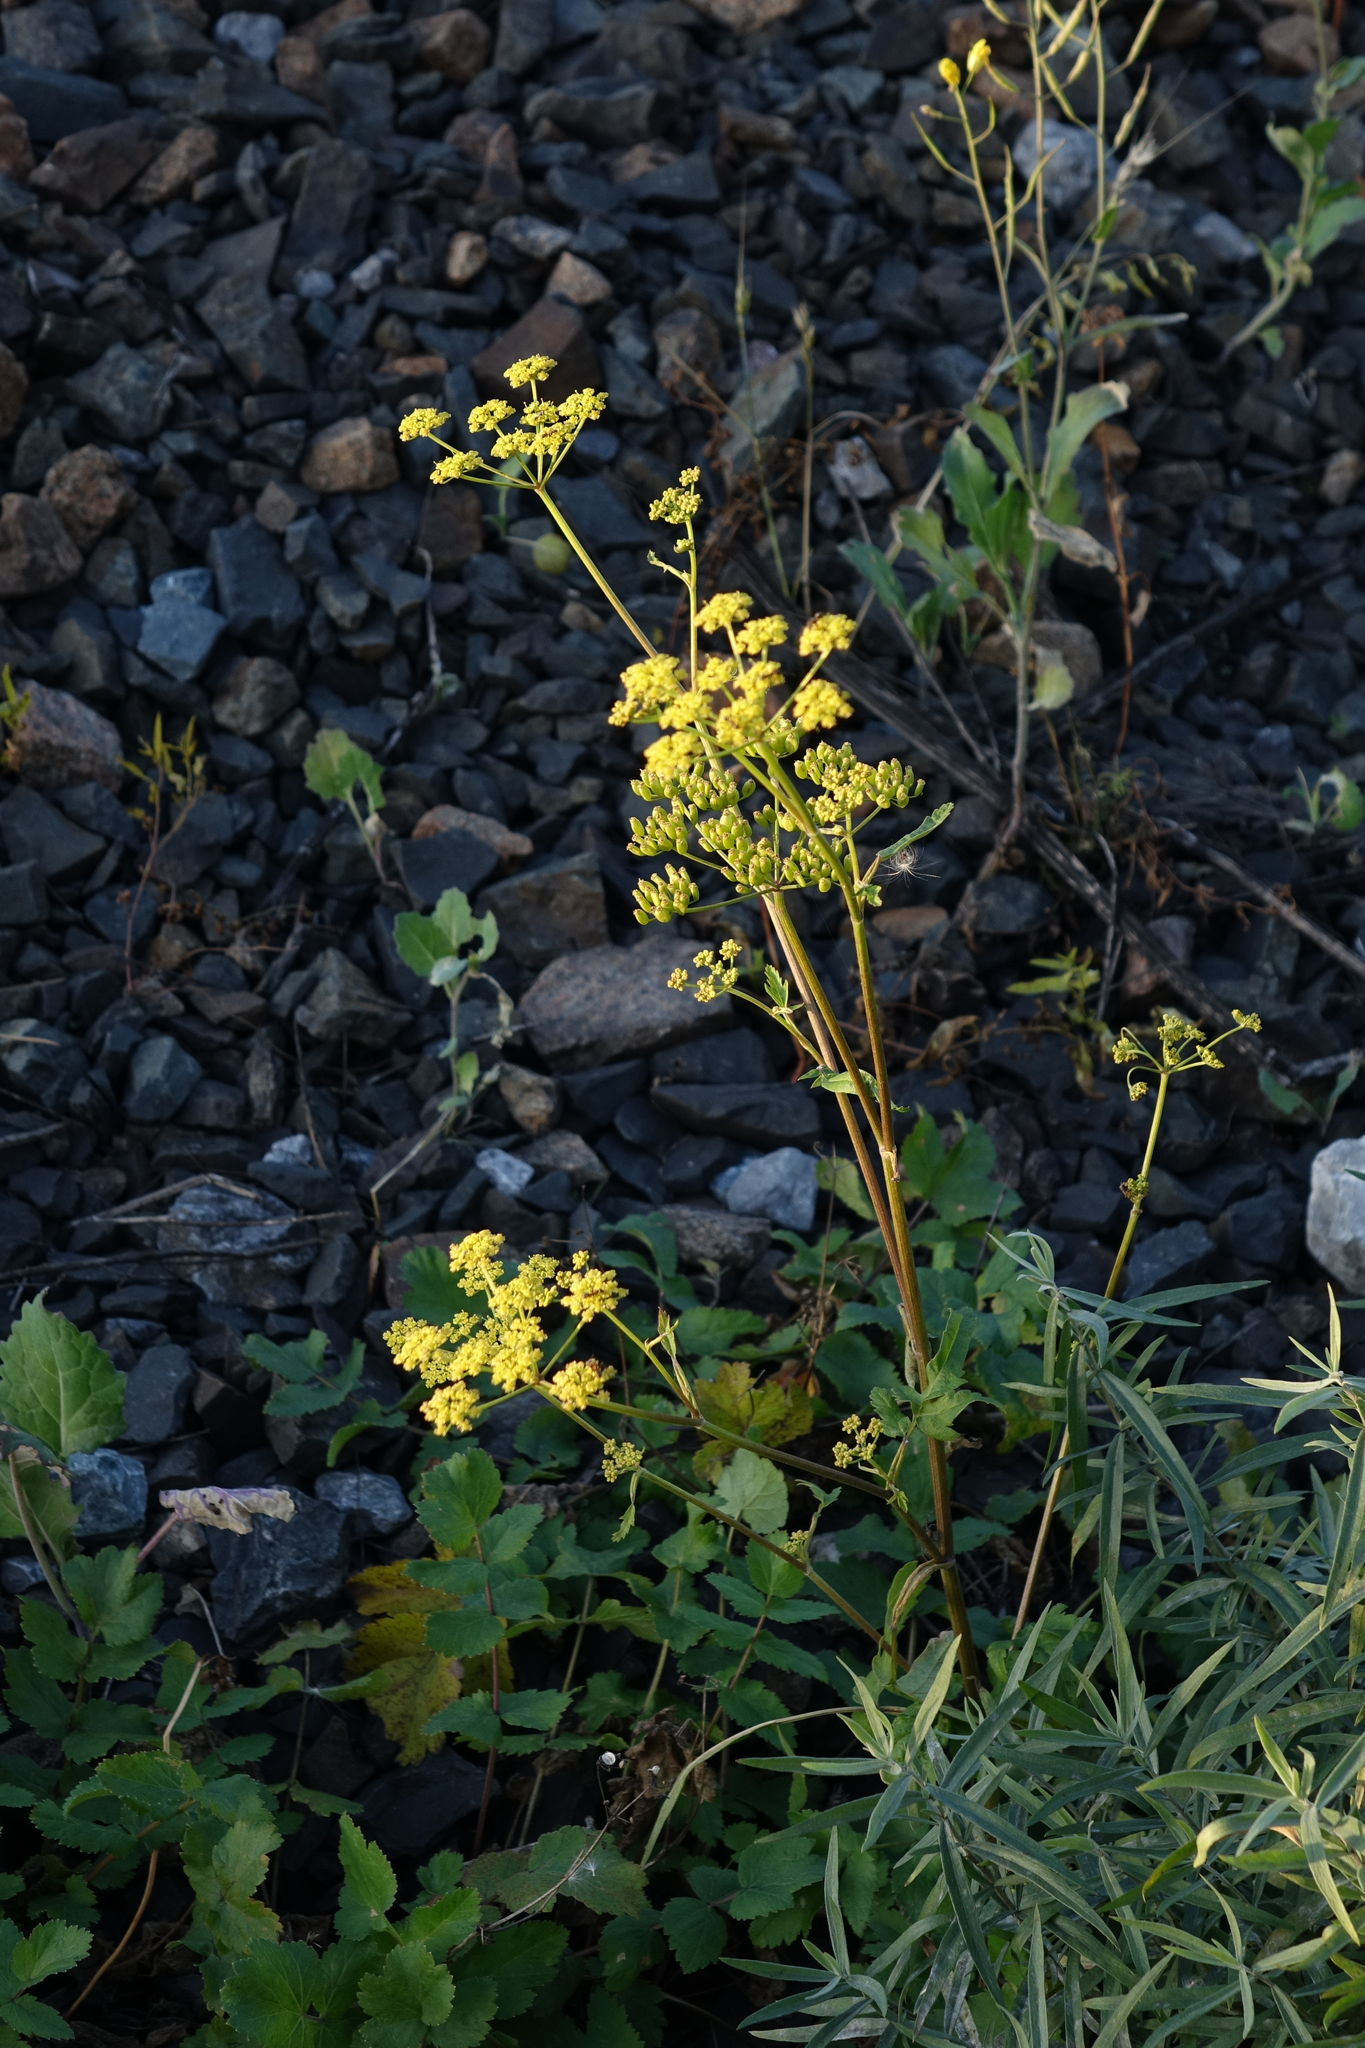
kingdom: Plantae
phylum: Tracheophyta
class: Magnoliopsida
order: Apiales
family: Apiaceae
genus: Pastinaca
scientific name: Pastinaca sativa
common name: Wild parsnip
